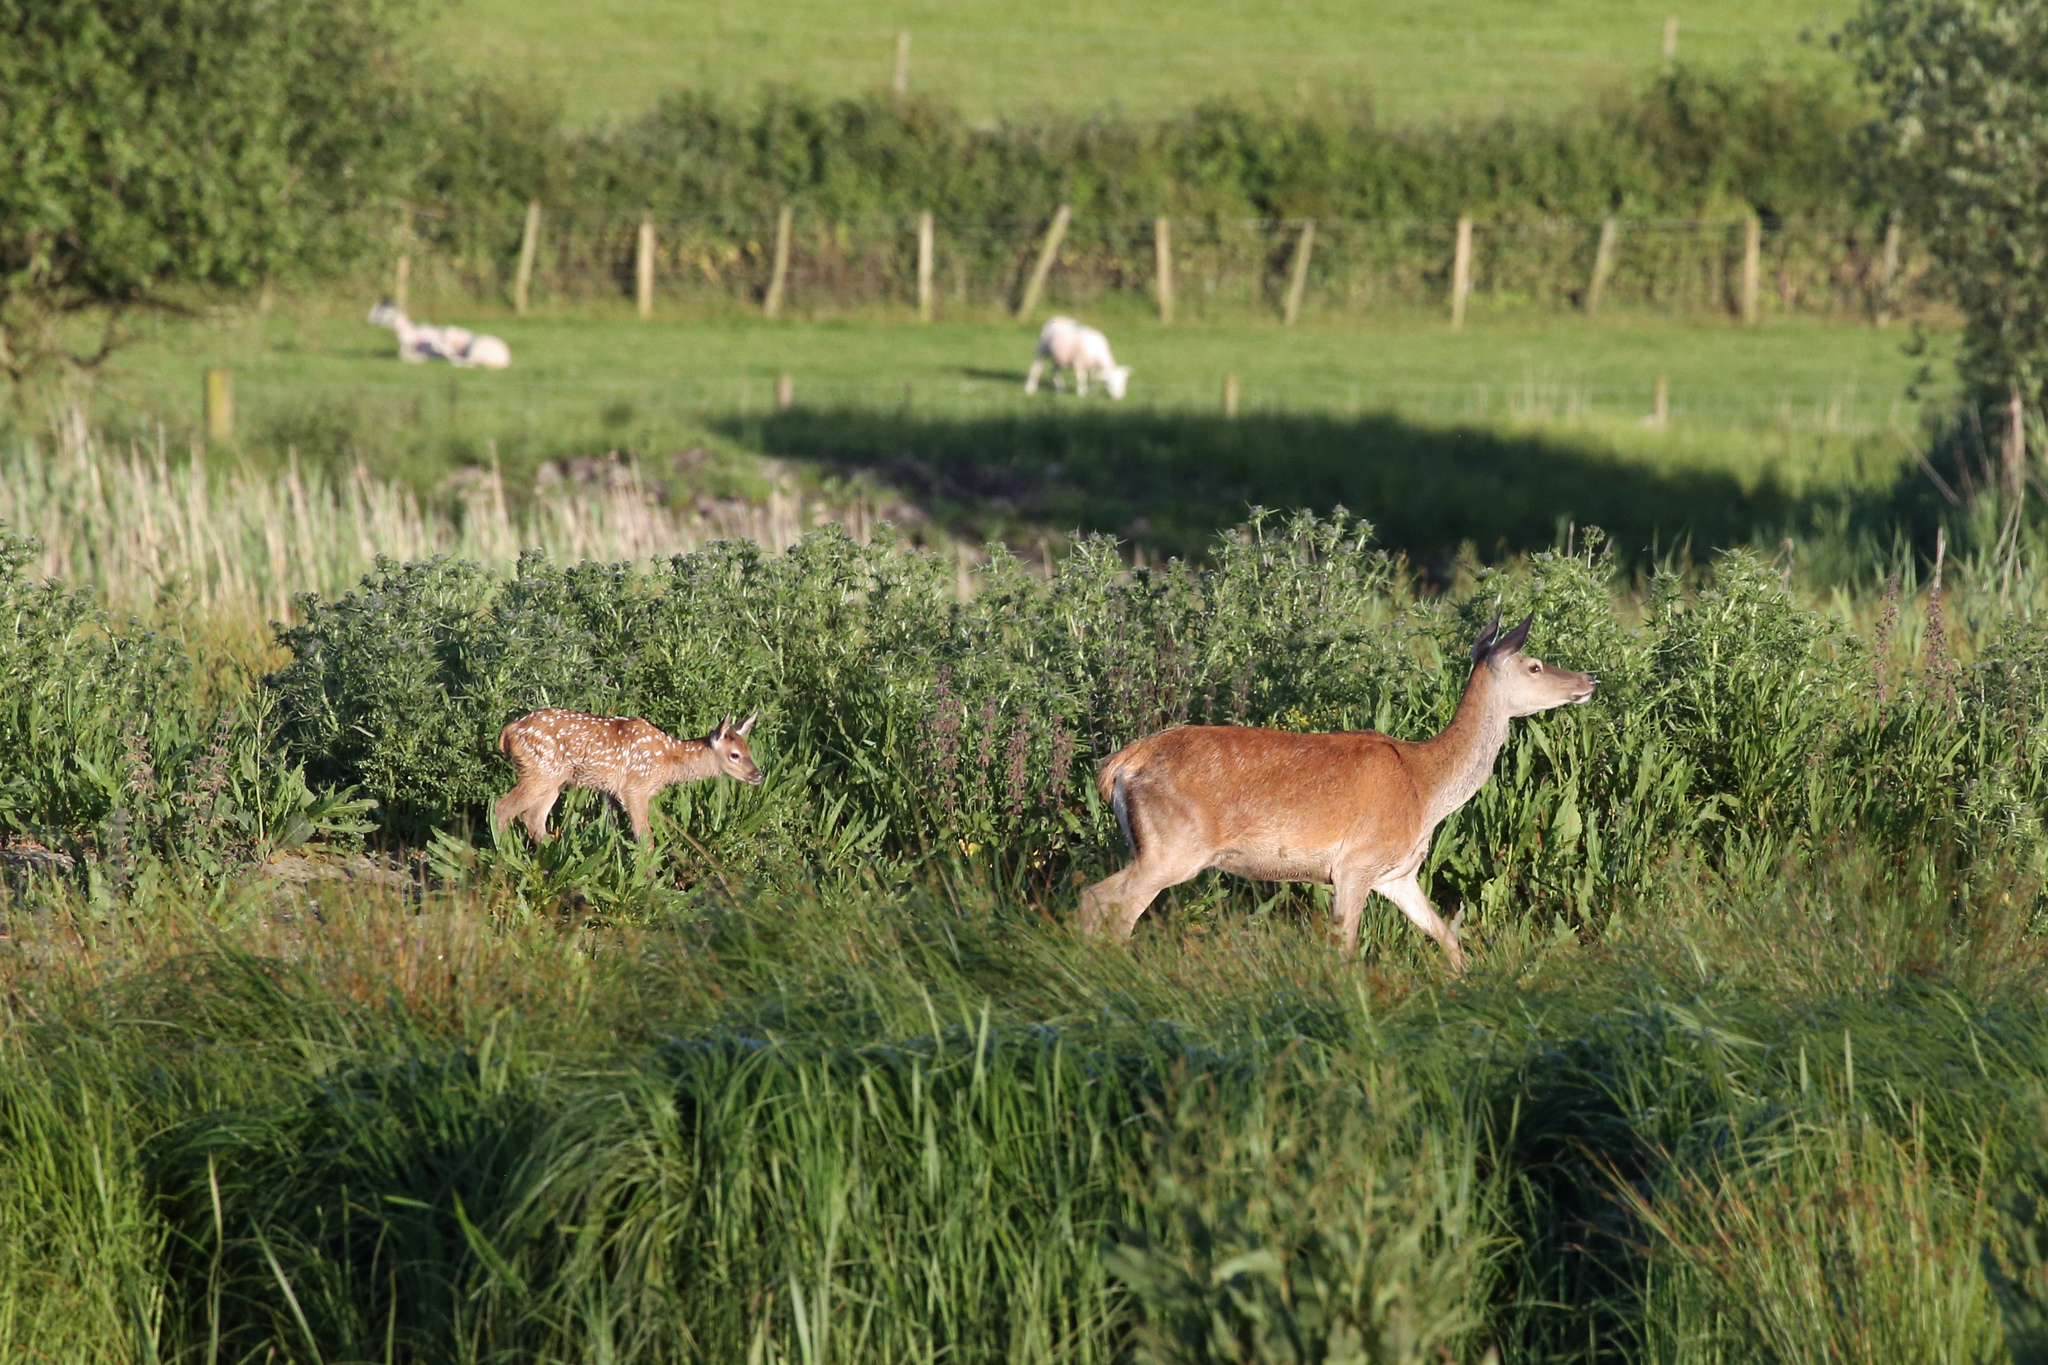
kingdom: Animalia
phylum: Chordata
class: Mammalia
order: Artiodactyla
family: Cervidae
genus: Cervus
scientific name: Cervus elaphus
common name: Red deer
